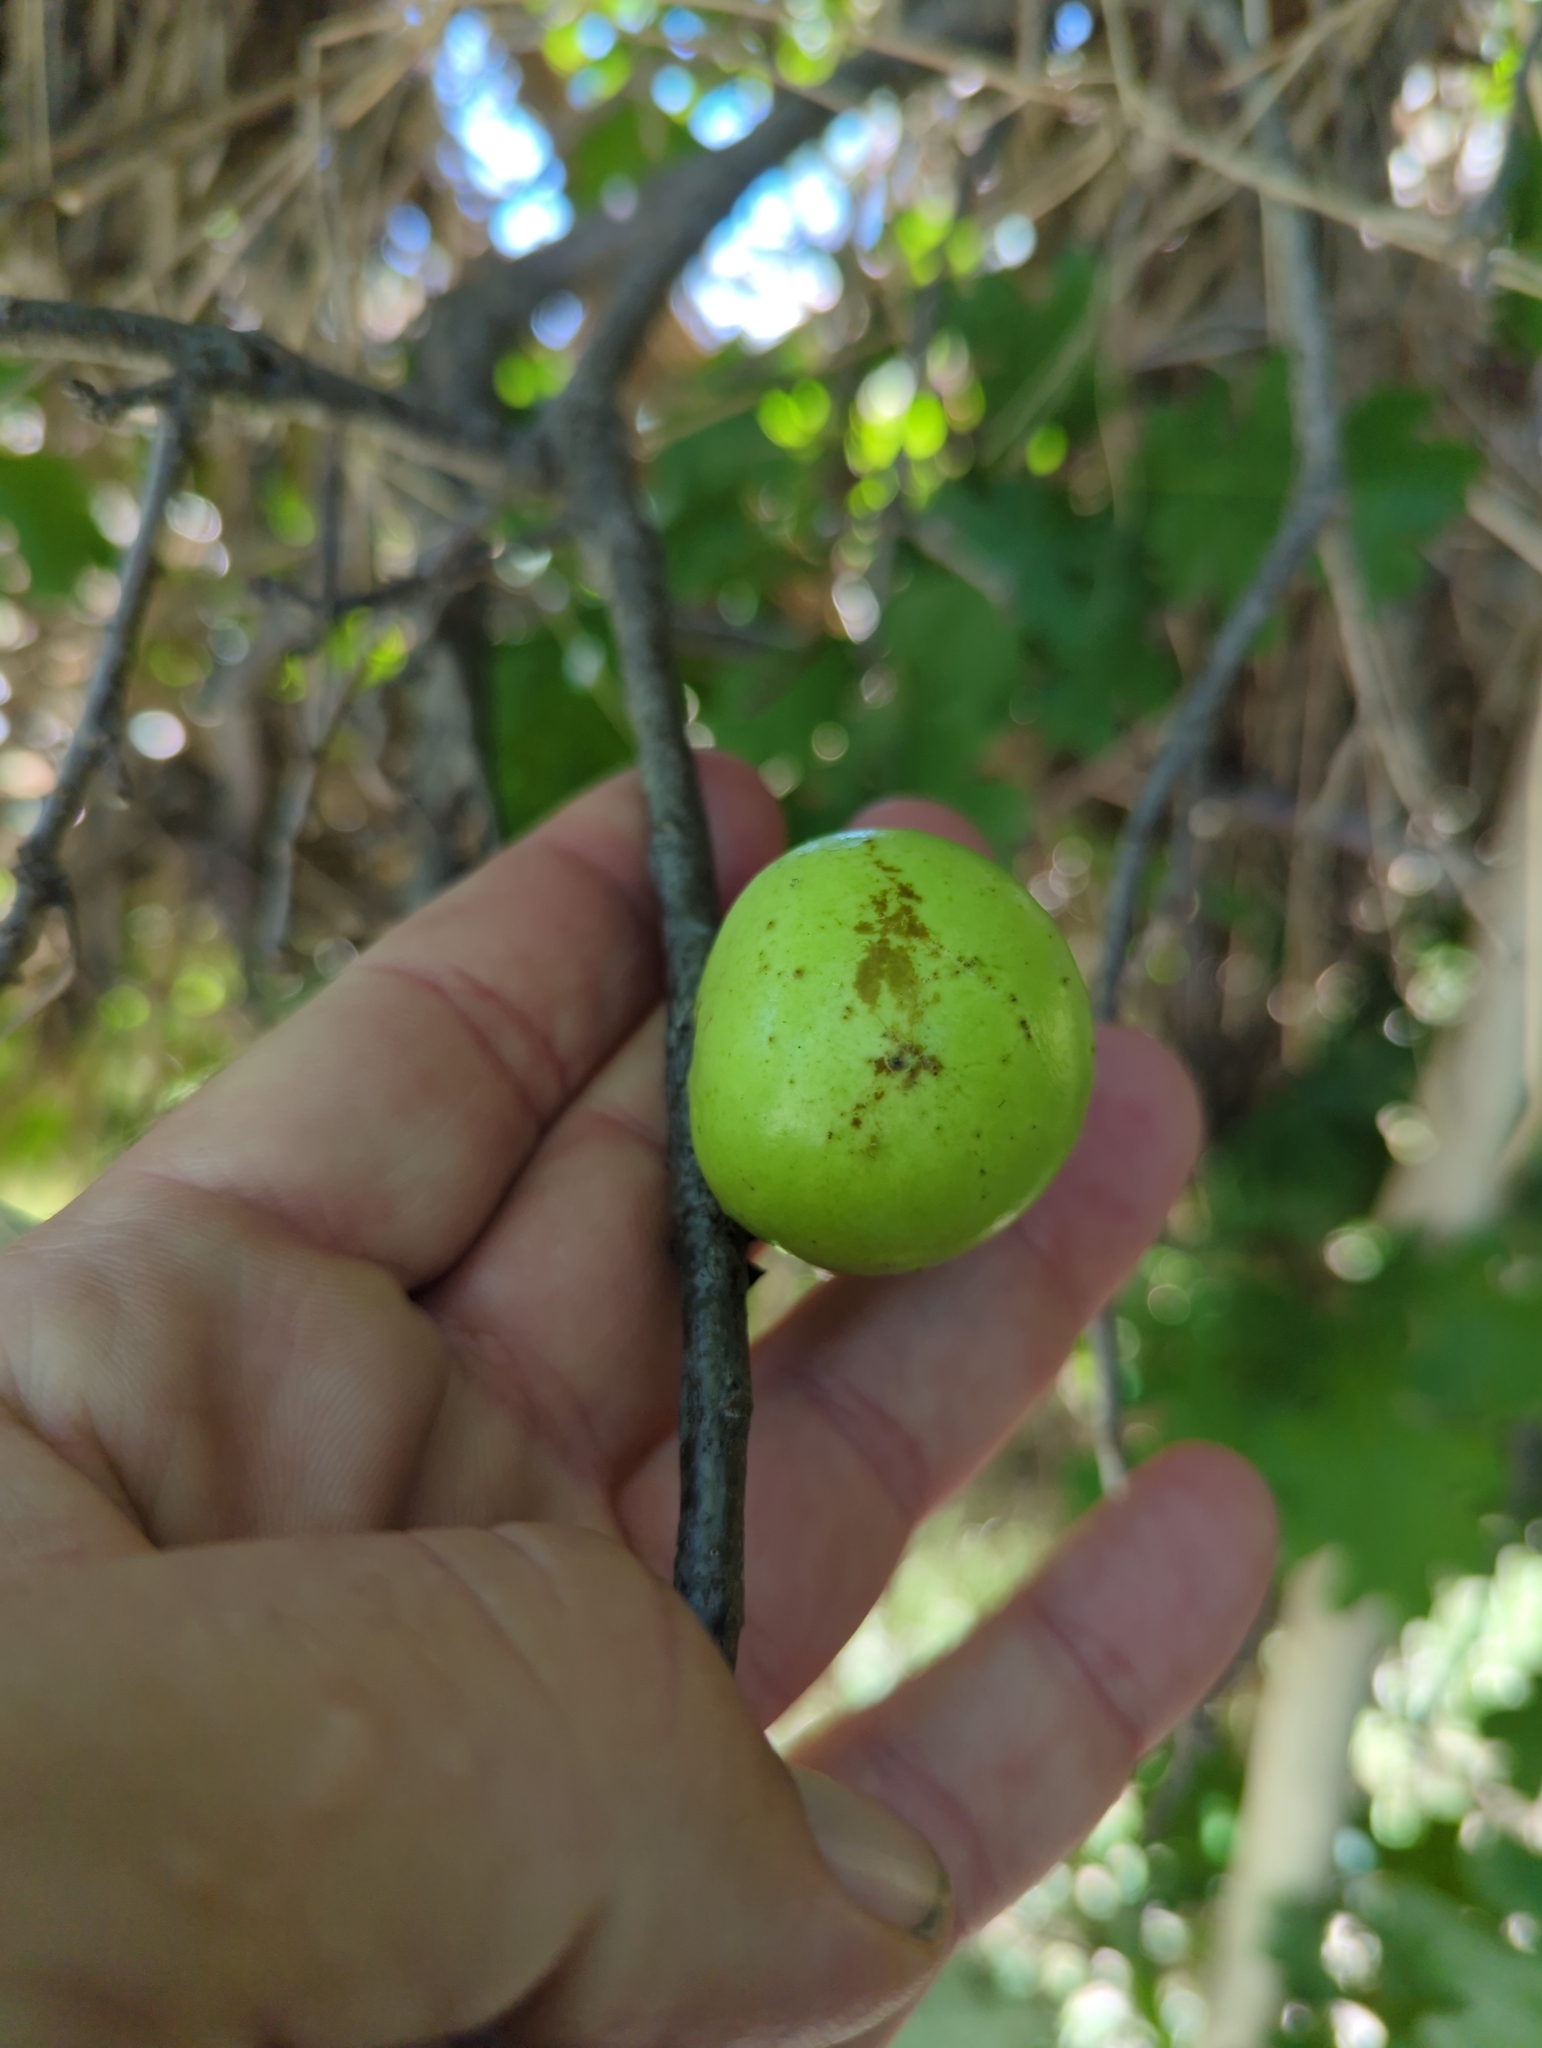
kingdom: Animalia
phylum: Arthropoda
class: Insecta
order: Hymenoptera
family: Cynipidae
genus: Andricus
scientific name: Andricus quercuscalifornicus
